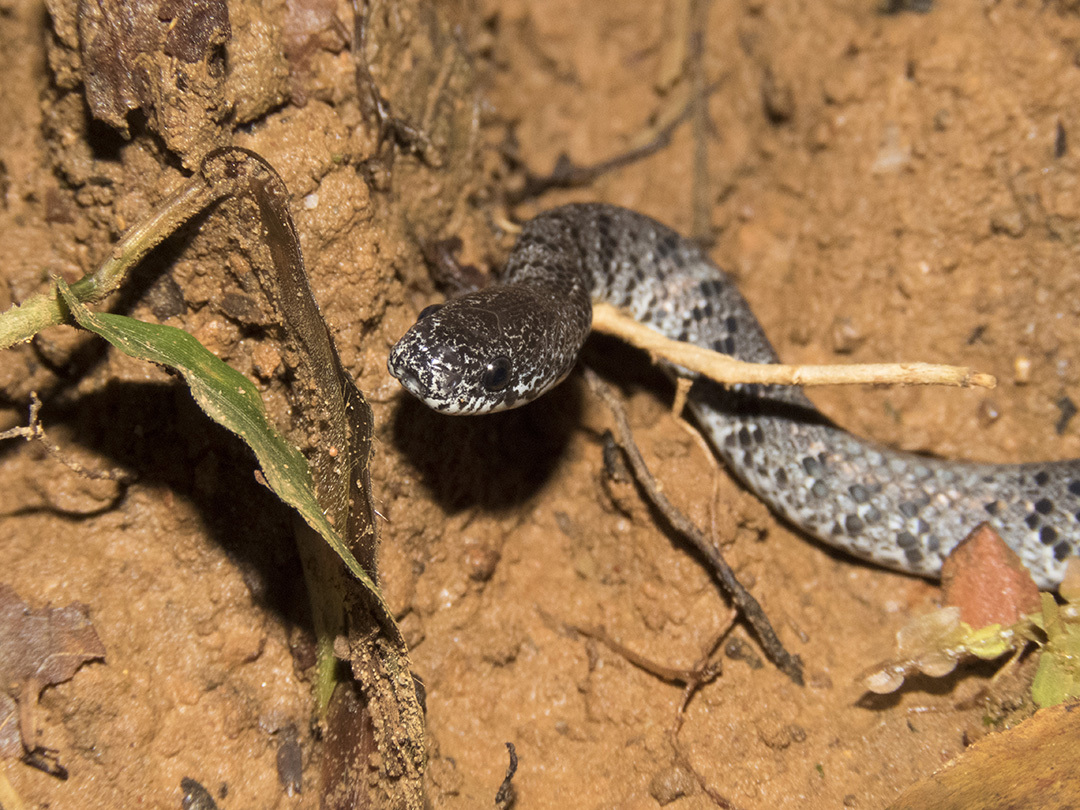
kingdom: Animalia
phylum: Chordata
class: Squamata
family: Pareidae
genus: Pareas
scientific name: Pareas margaritophorus
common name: Mountain slug snake
